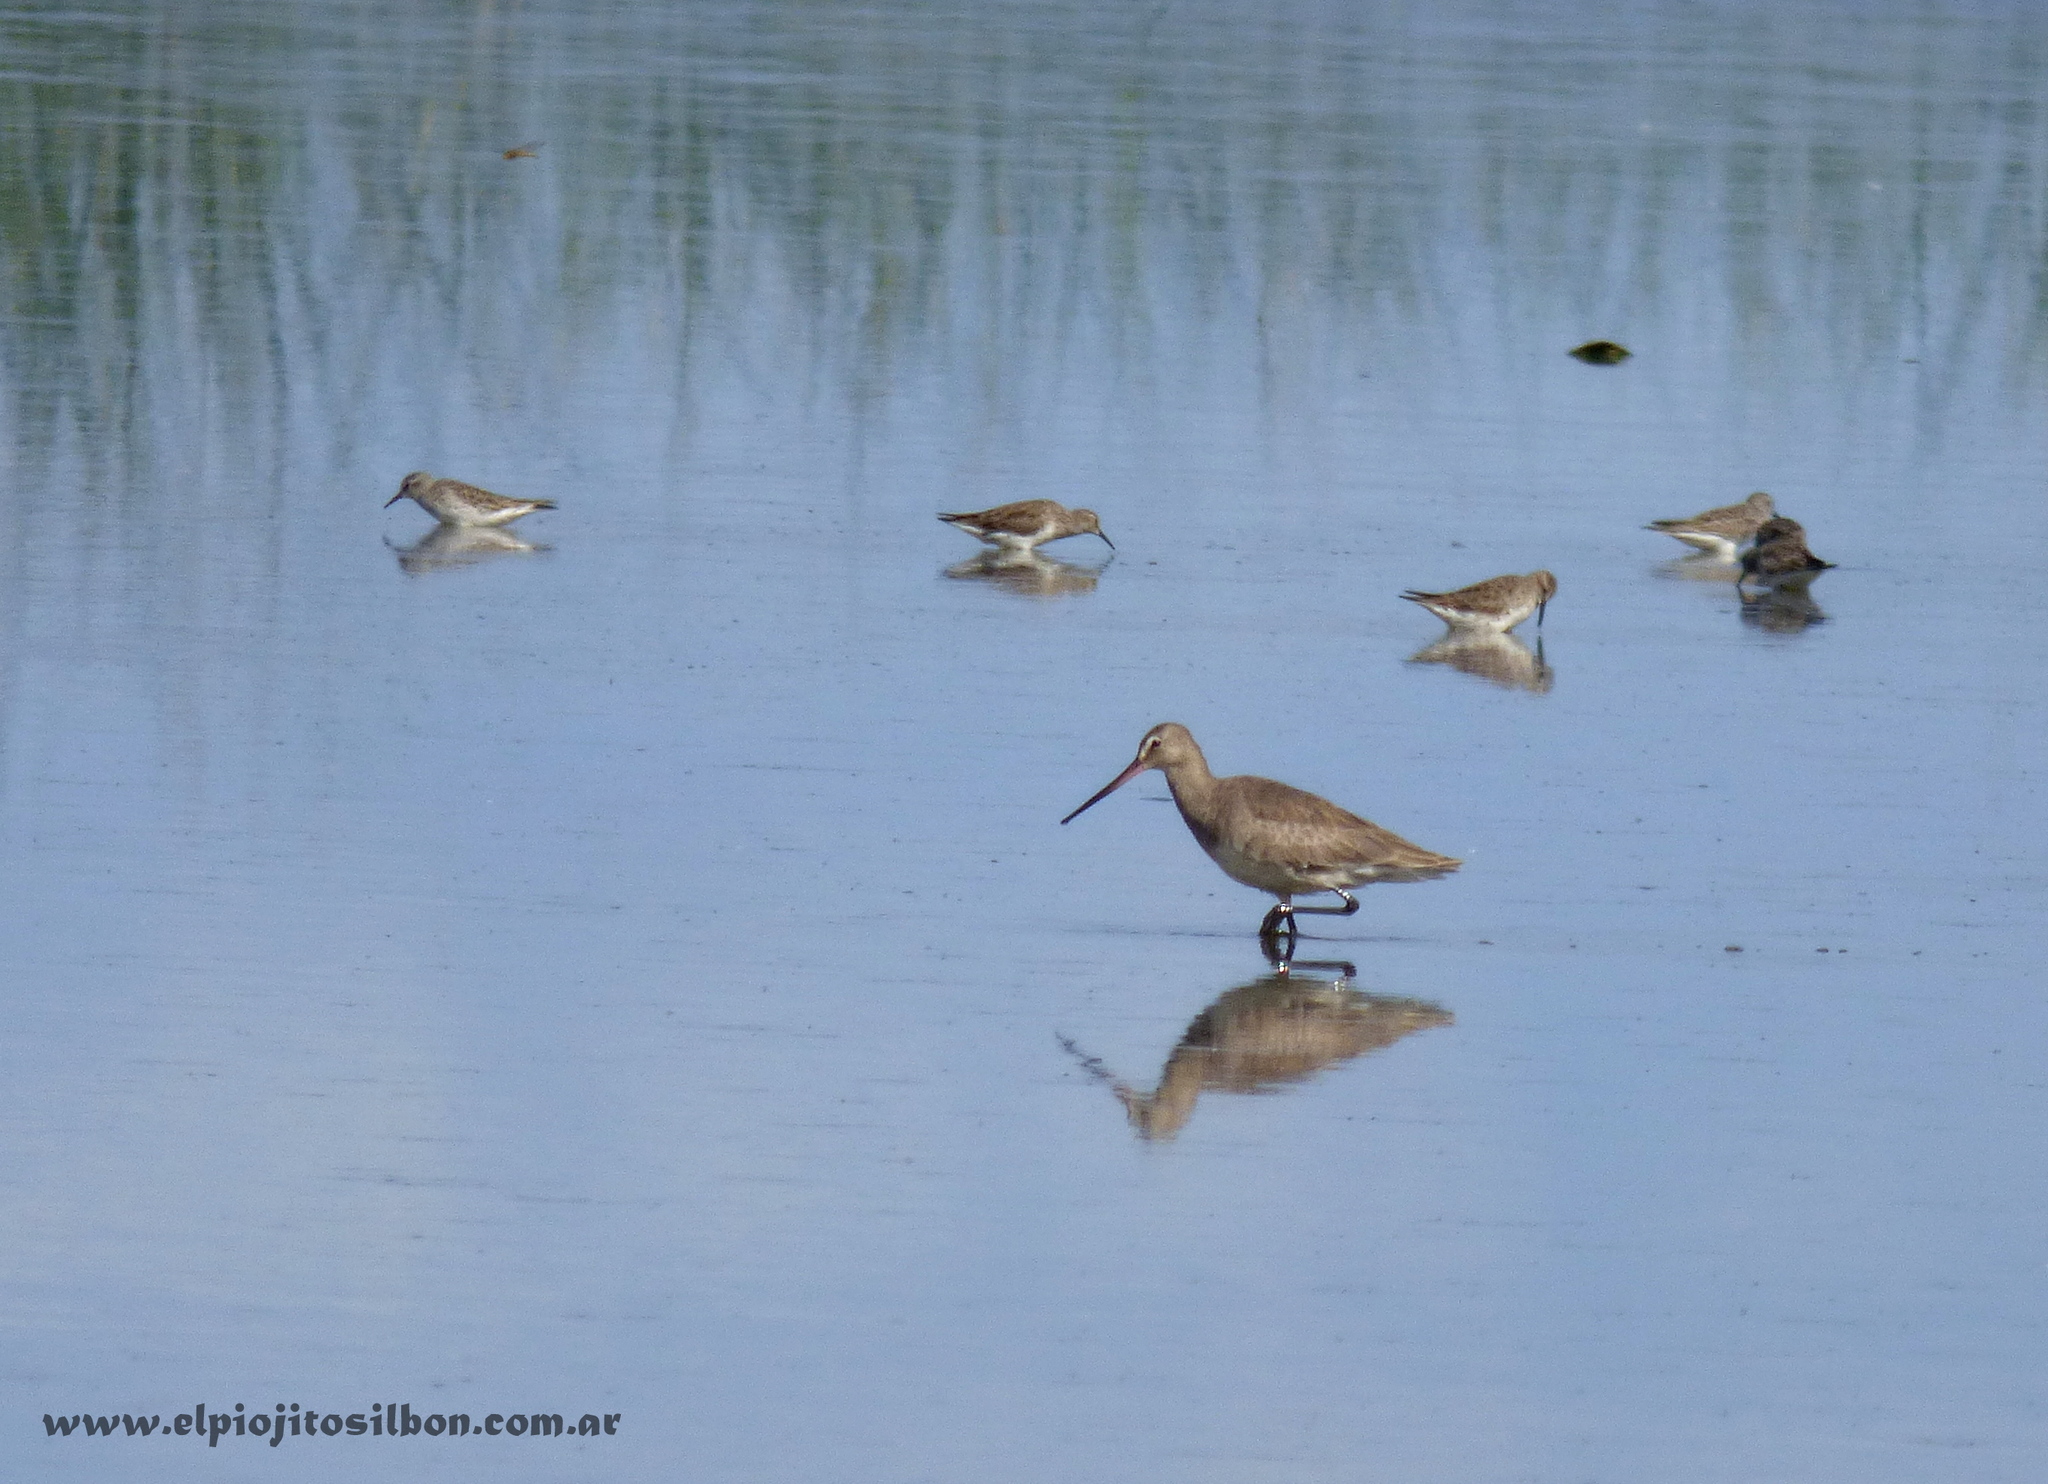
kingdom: Animalia
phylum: Chordata
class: Aves
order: Charadriiformes
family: Scolopacidae
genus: Limosa
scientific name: Limosa haemastica
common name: Hudsonian godwit
